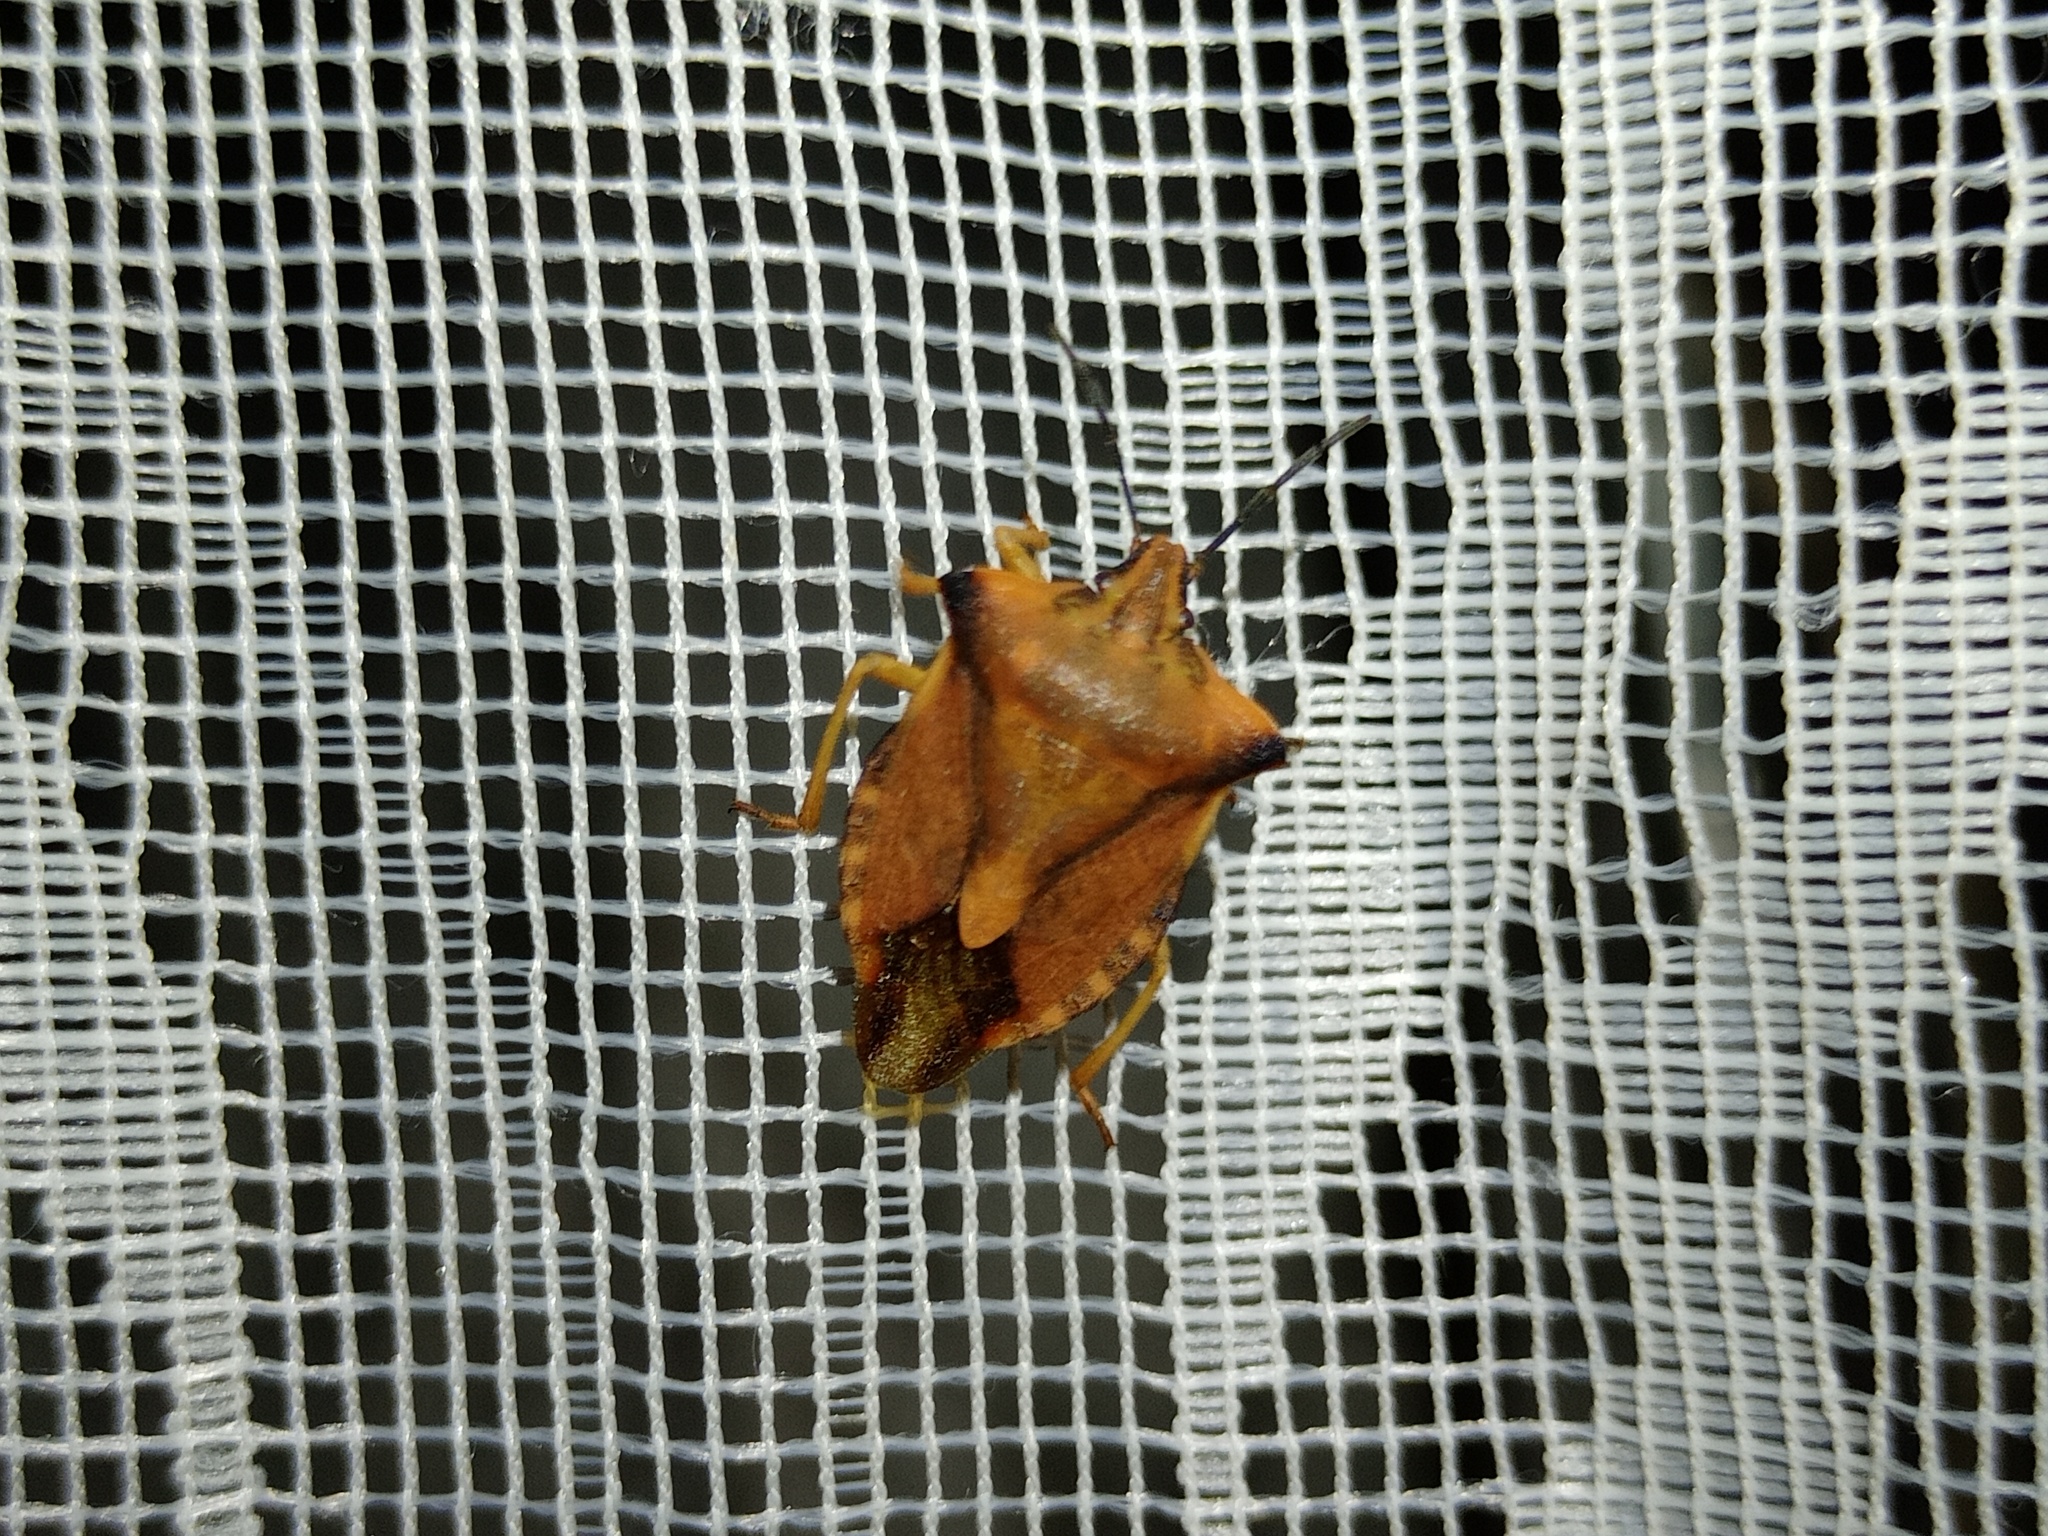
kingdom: Animalia
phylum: Arthropoda
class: Insecta
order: Hemiptera
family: Pentatomidae
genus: Carpocoris
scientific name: Carpocoris fuscispinus
